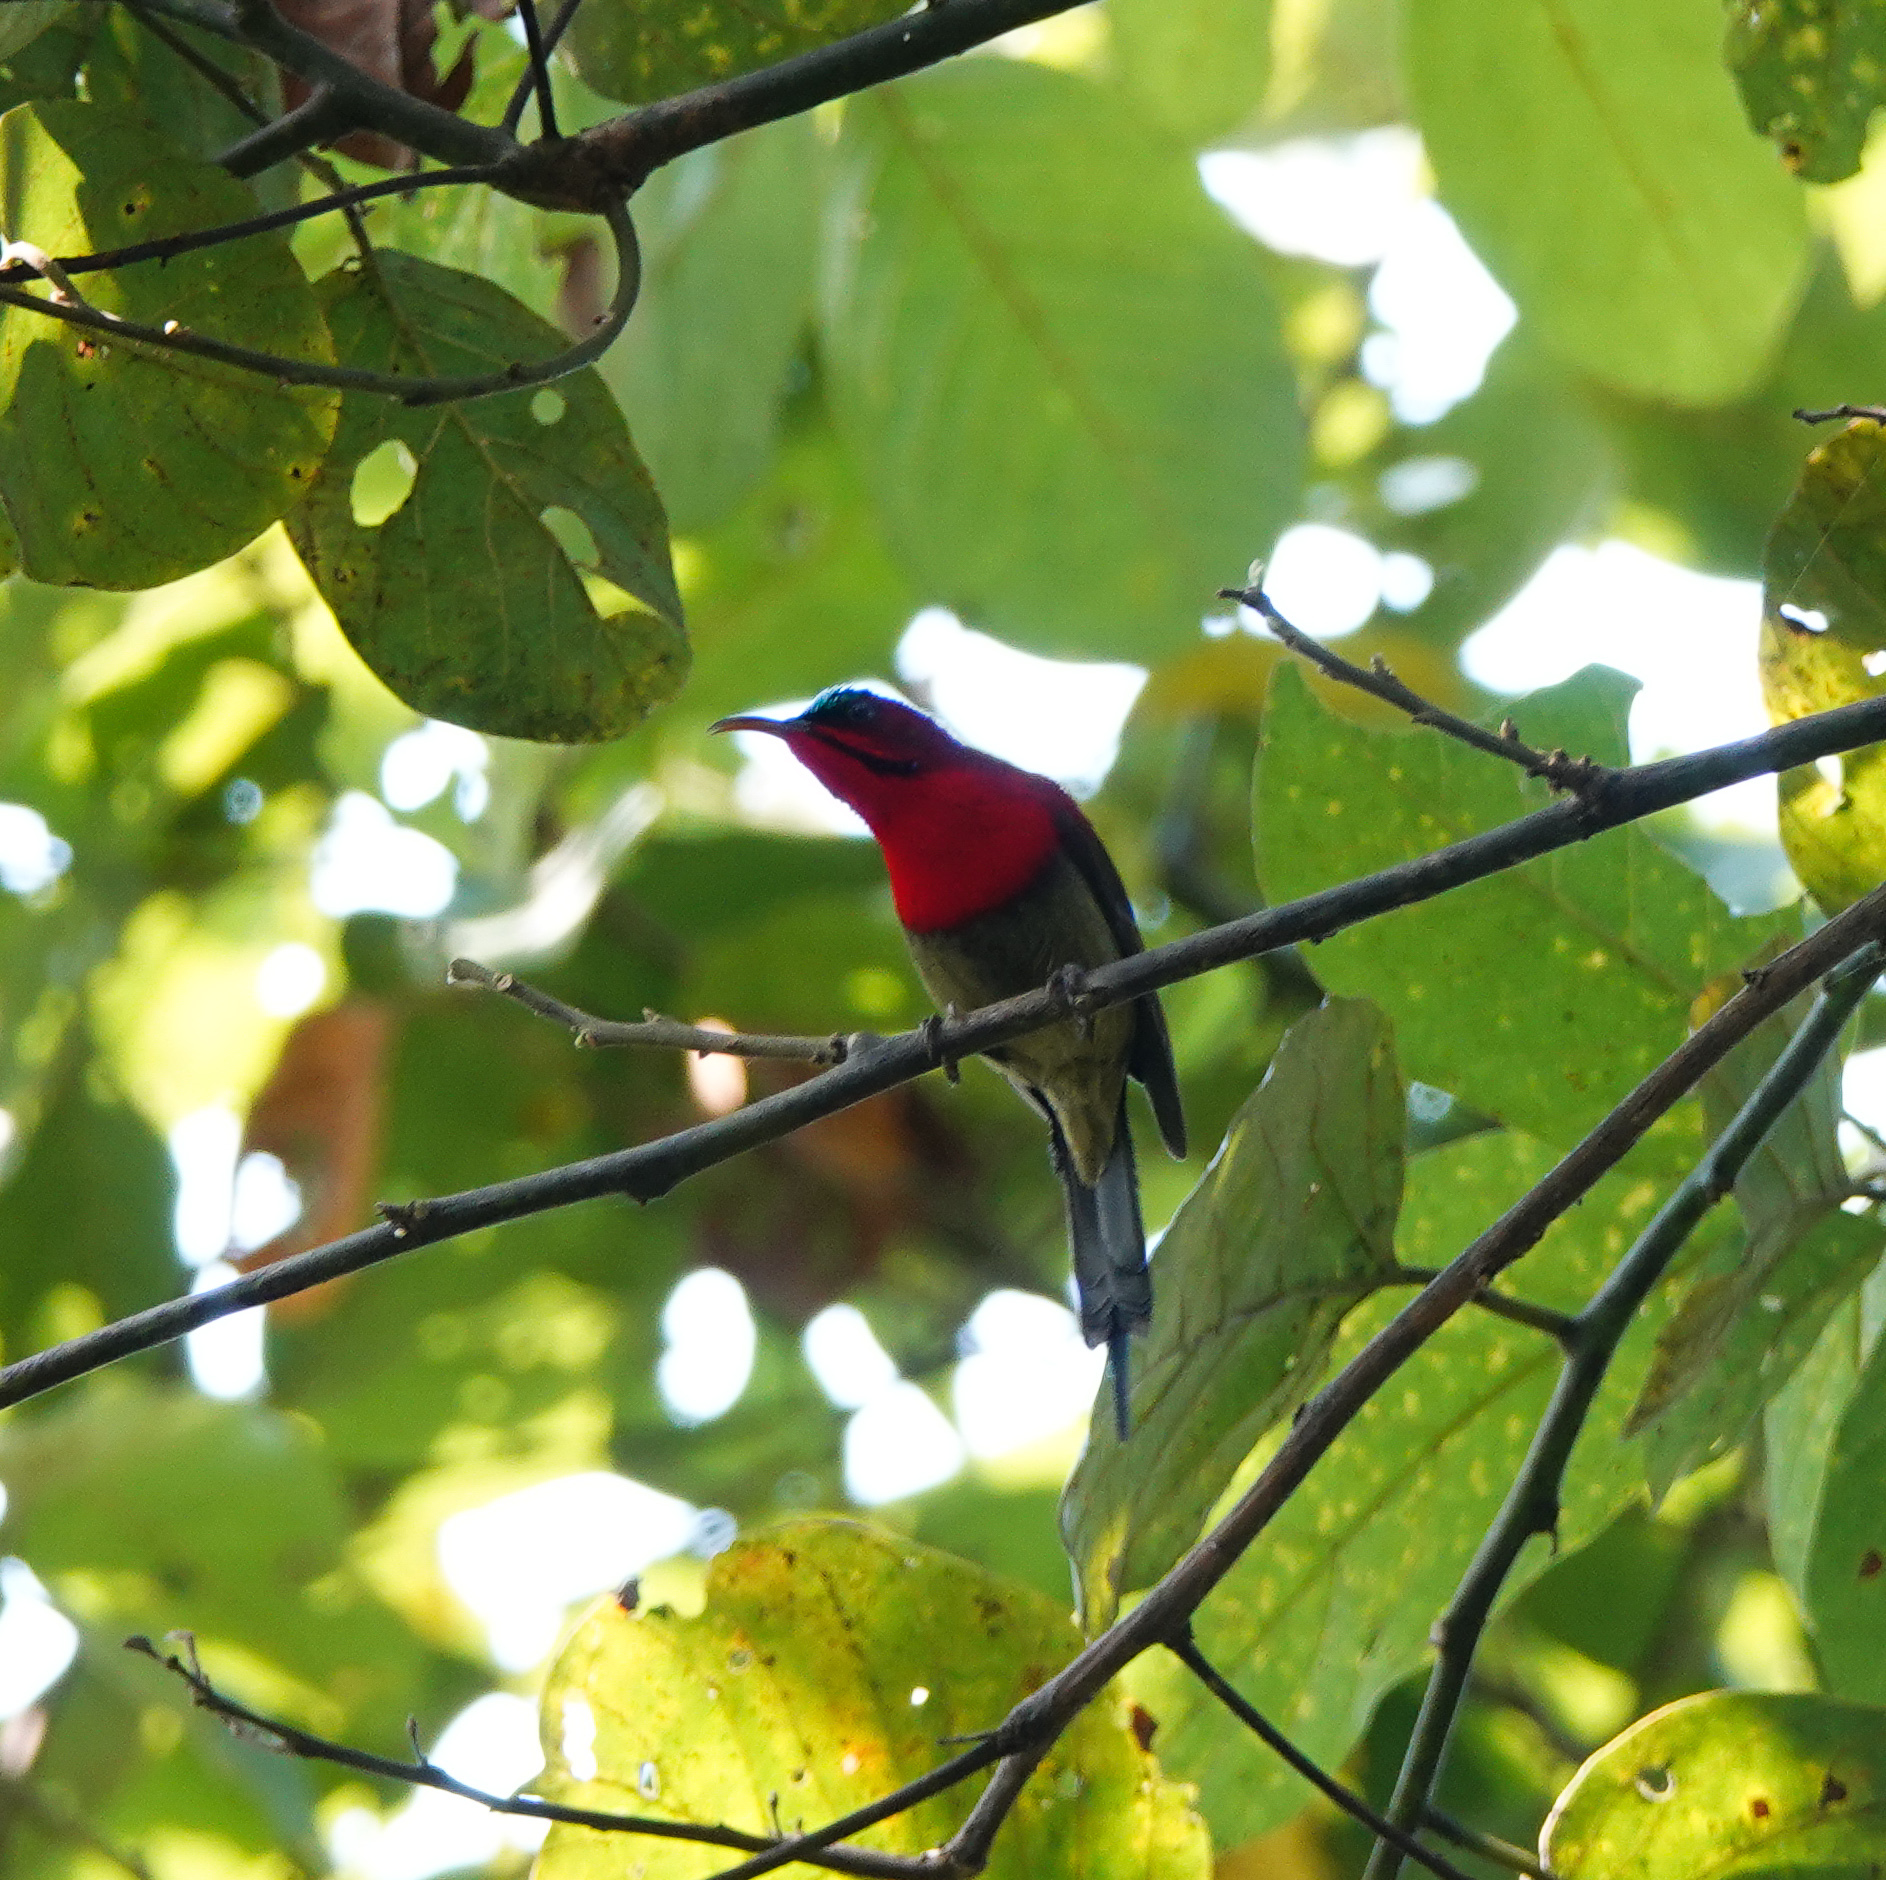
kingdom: Animalia
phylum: Chordata
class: Aves
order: Passeriformes
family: Nectariniidae
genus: Aethopyga
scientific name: Aethopyga siparaja
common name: Crimson sunbird
